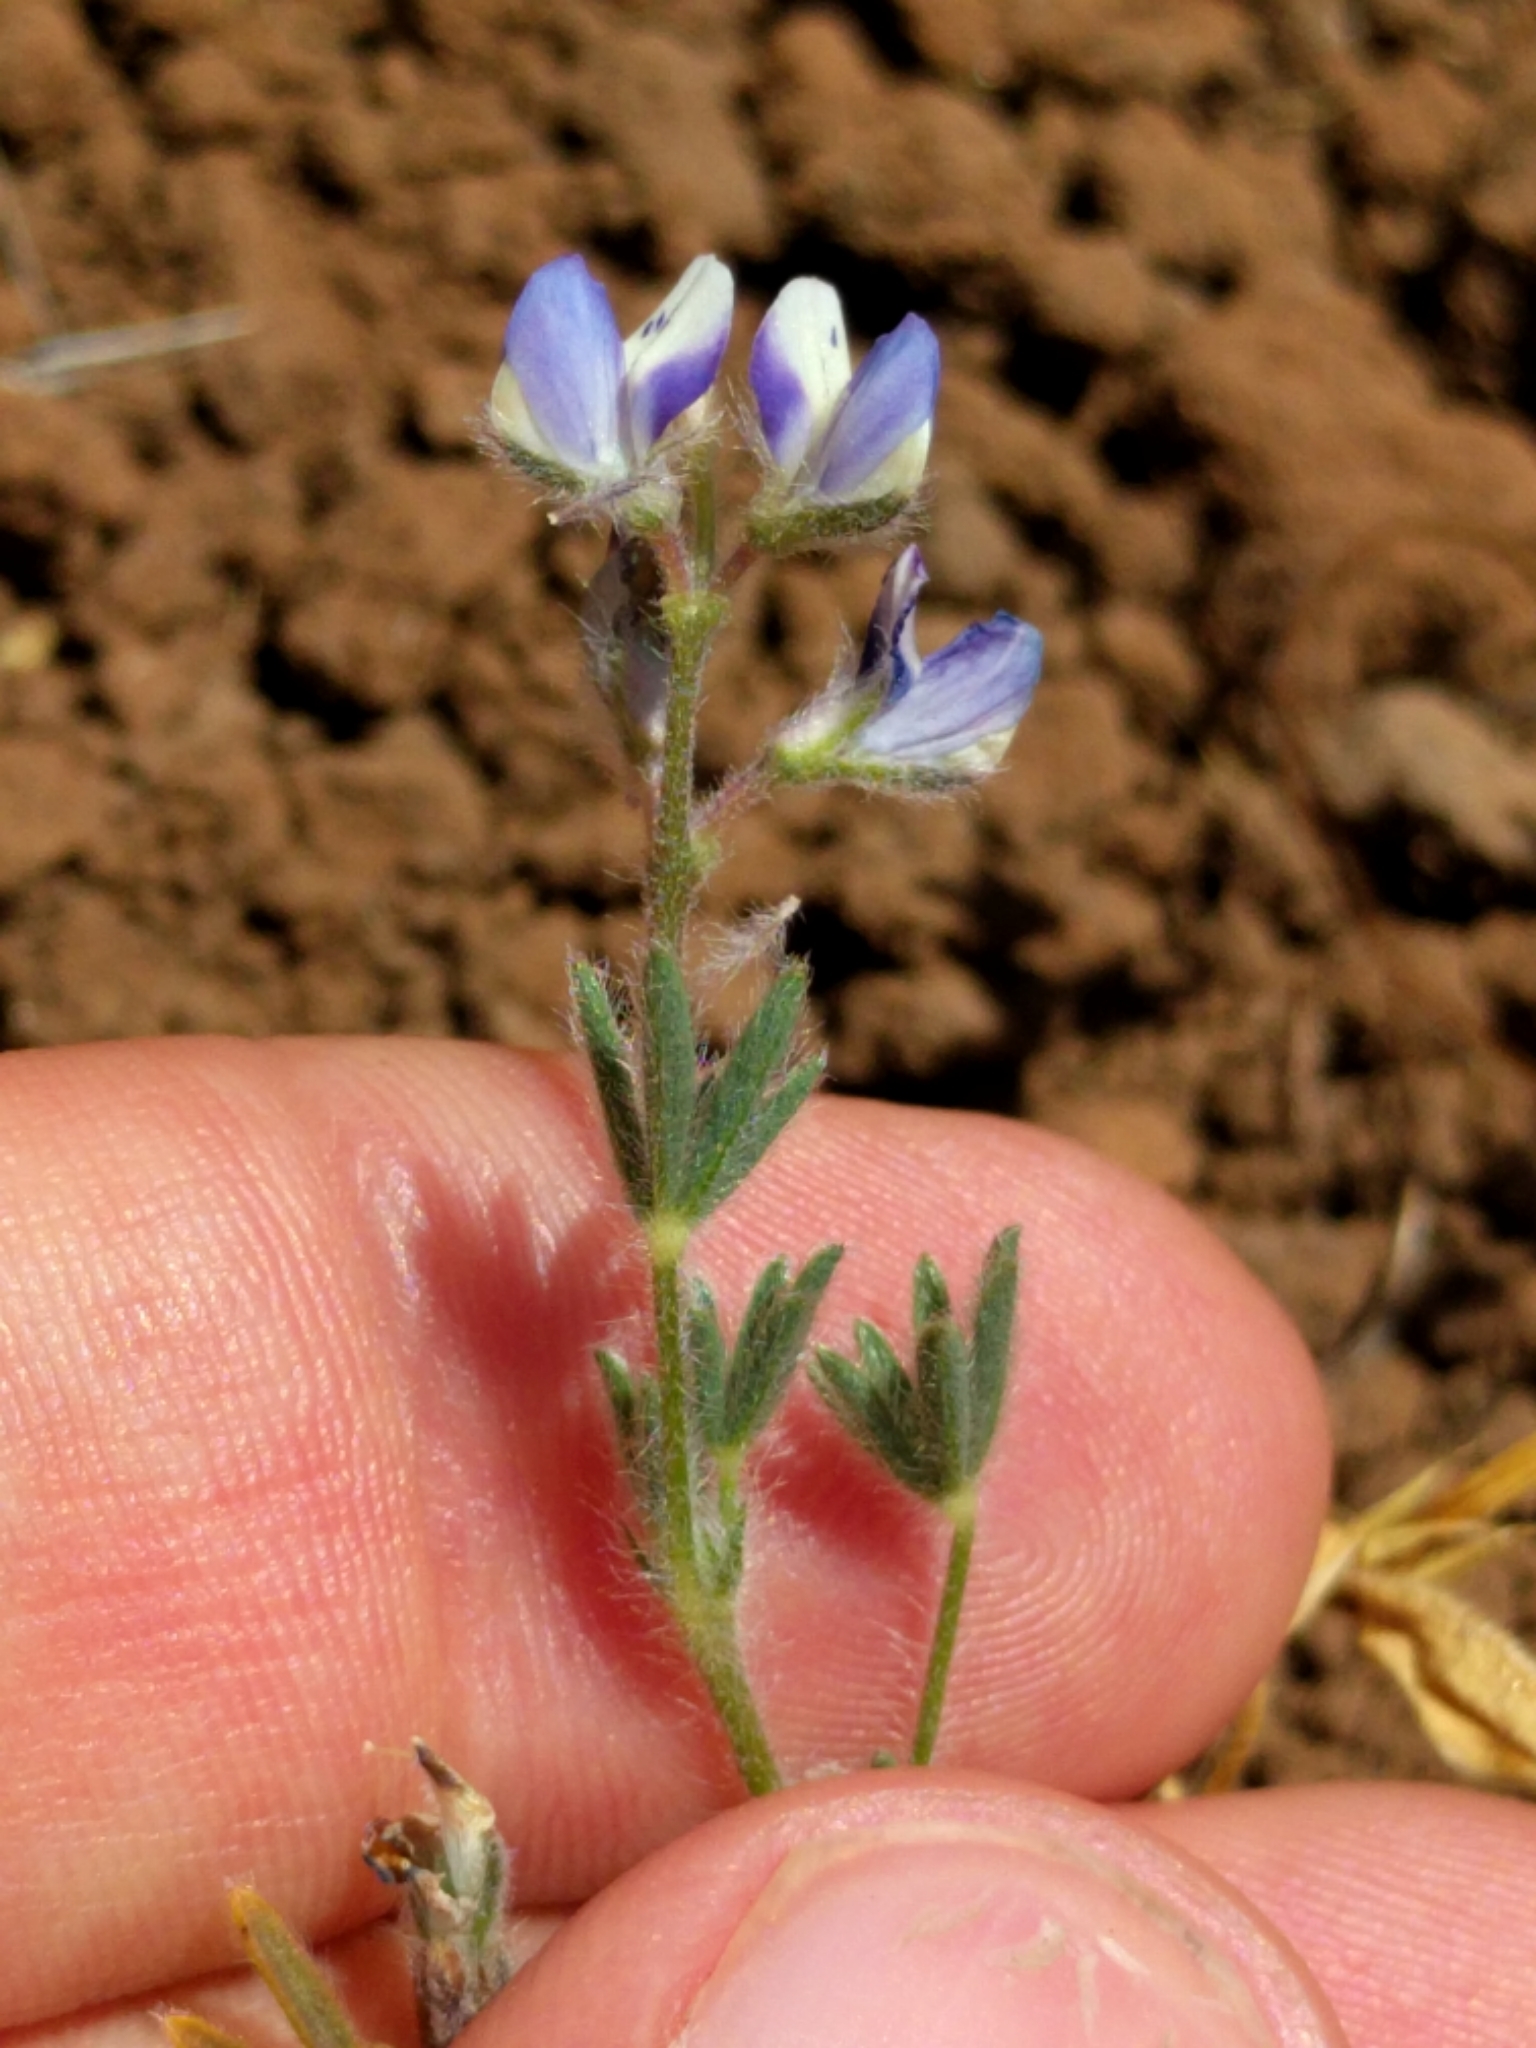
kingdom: Plantae
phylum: Tracheophyta
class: Magnoliopsida
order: Fabales
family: Fabaceae
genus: Lupinus
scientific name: Lupinus bicolor
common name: Miniature lupine
